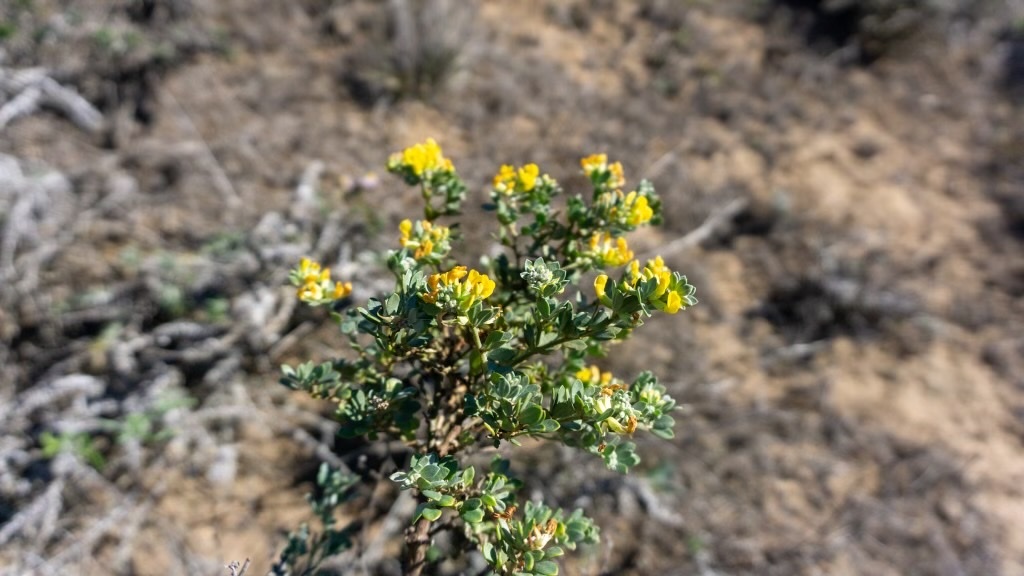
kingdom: Plantae
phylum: Tracheophyta
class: Magnoliopsida
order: Fabales
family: Fabaceae
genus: Acmispon
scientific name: Acmispon dendroideus
